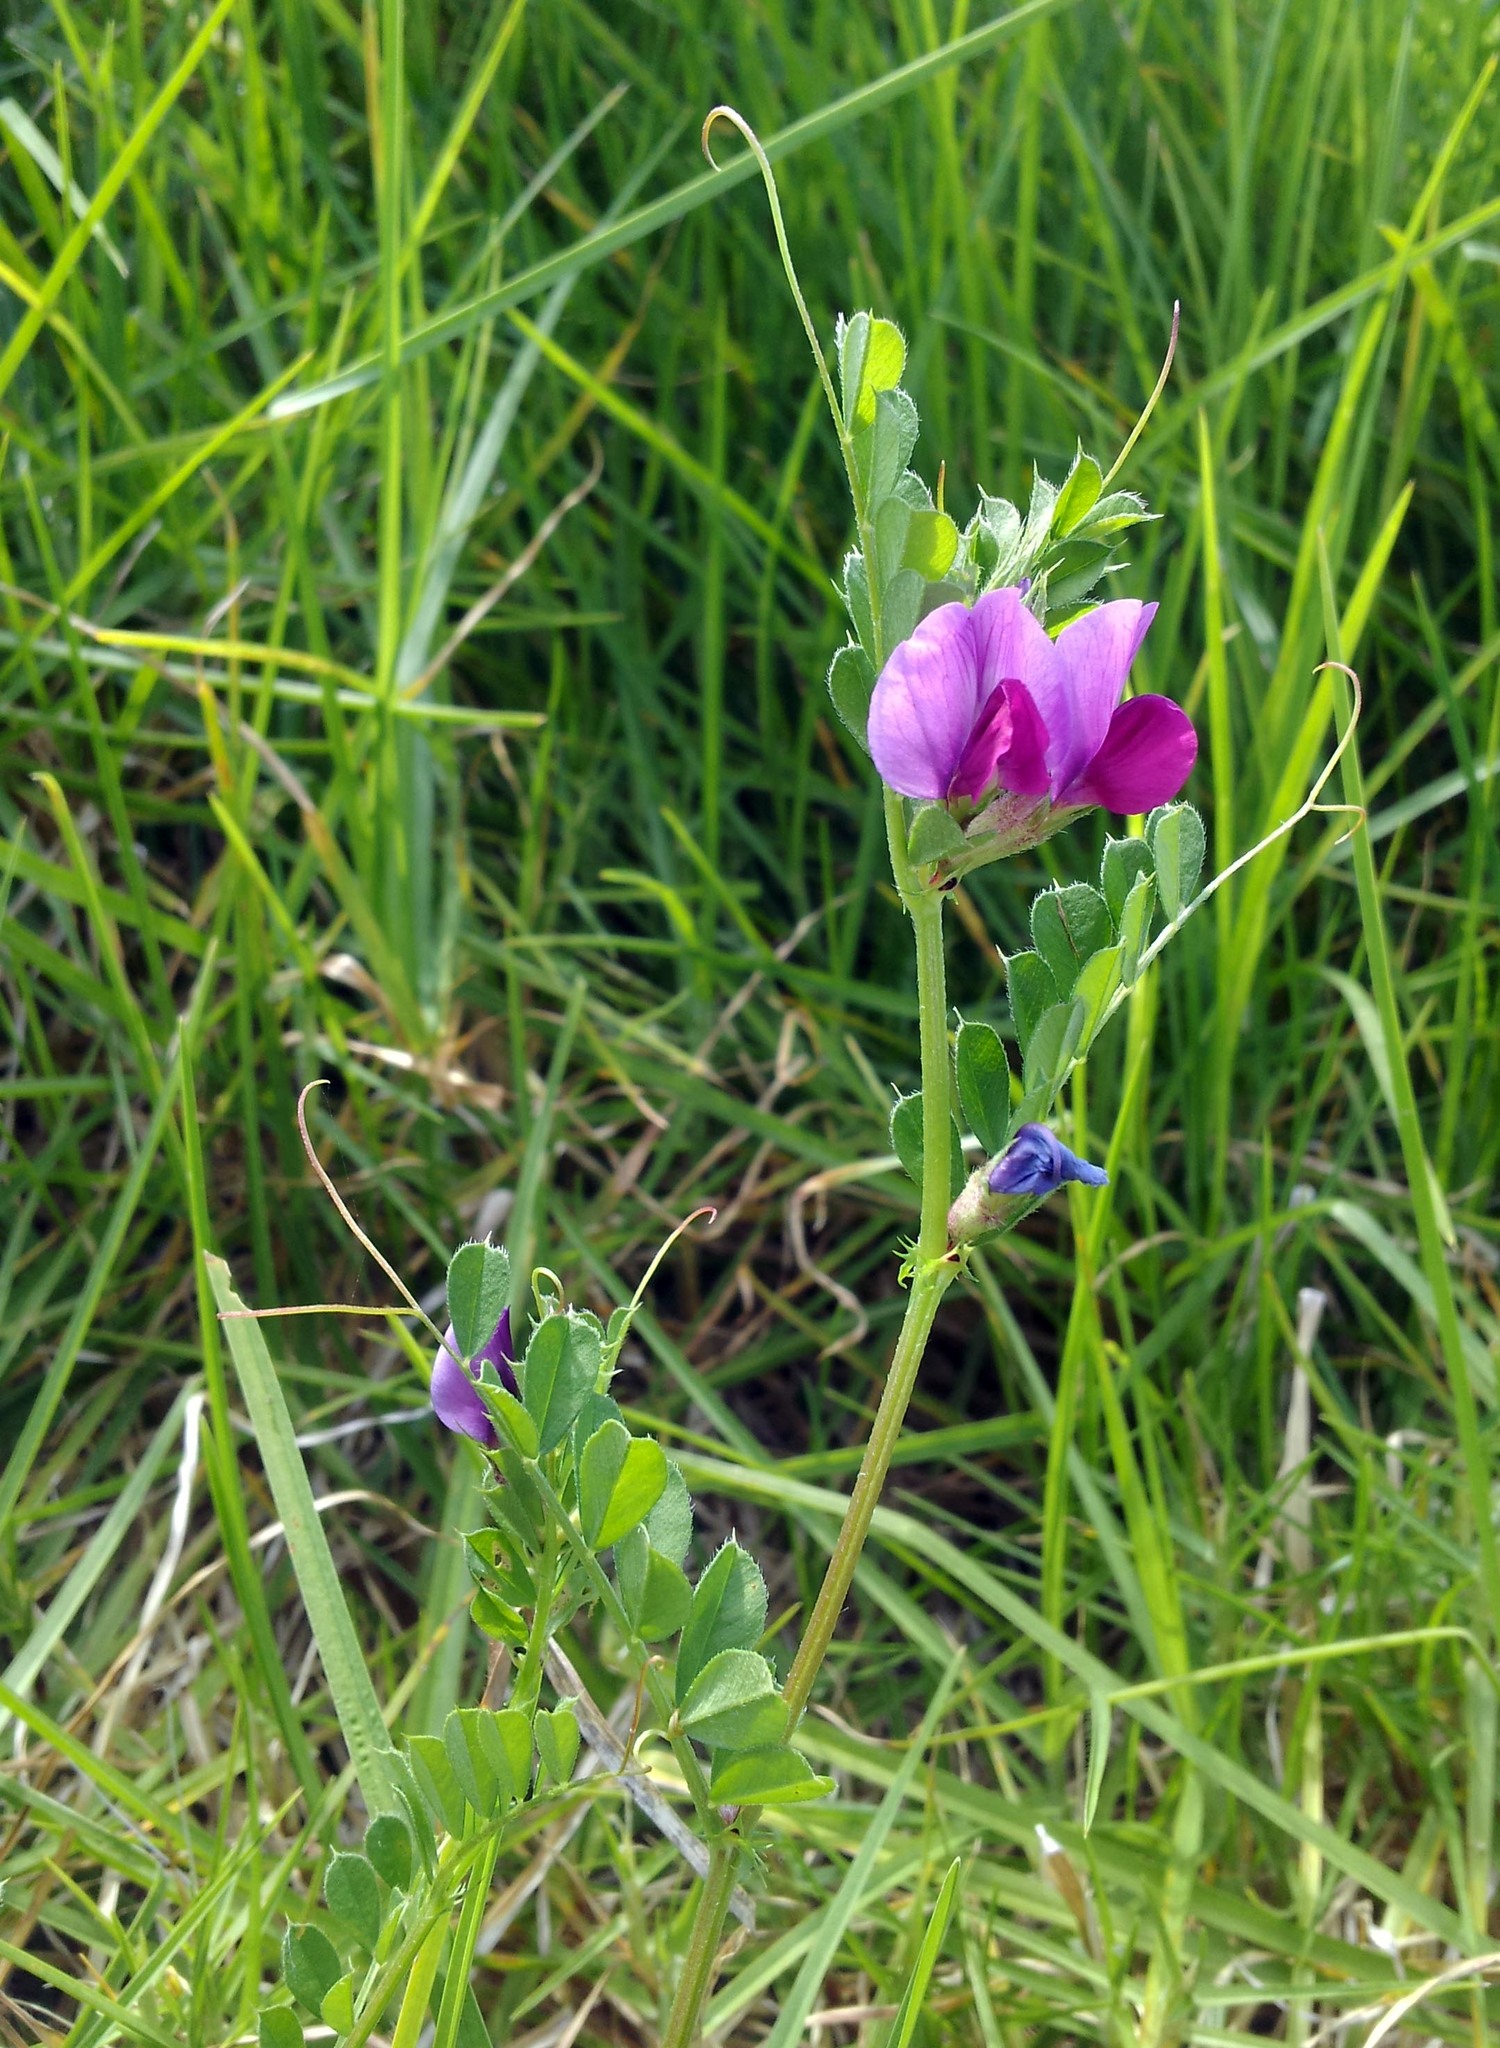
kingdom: Plantae
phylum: Tracheophyta
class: Magnoliopsida
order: Fabales
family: Fabaceae
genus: Vicia
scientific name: Vicia sativa
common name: Garden vetch
